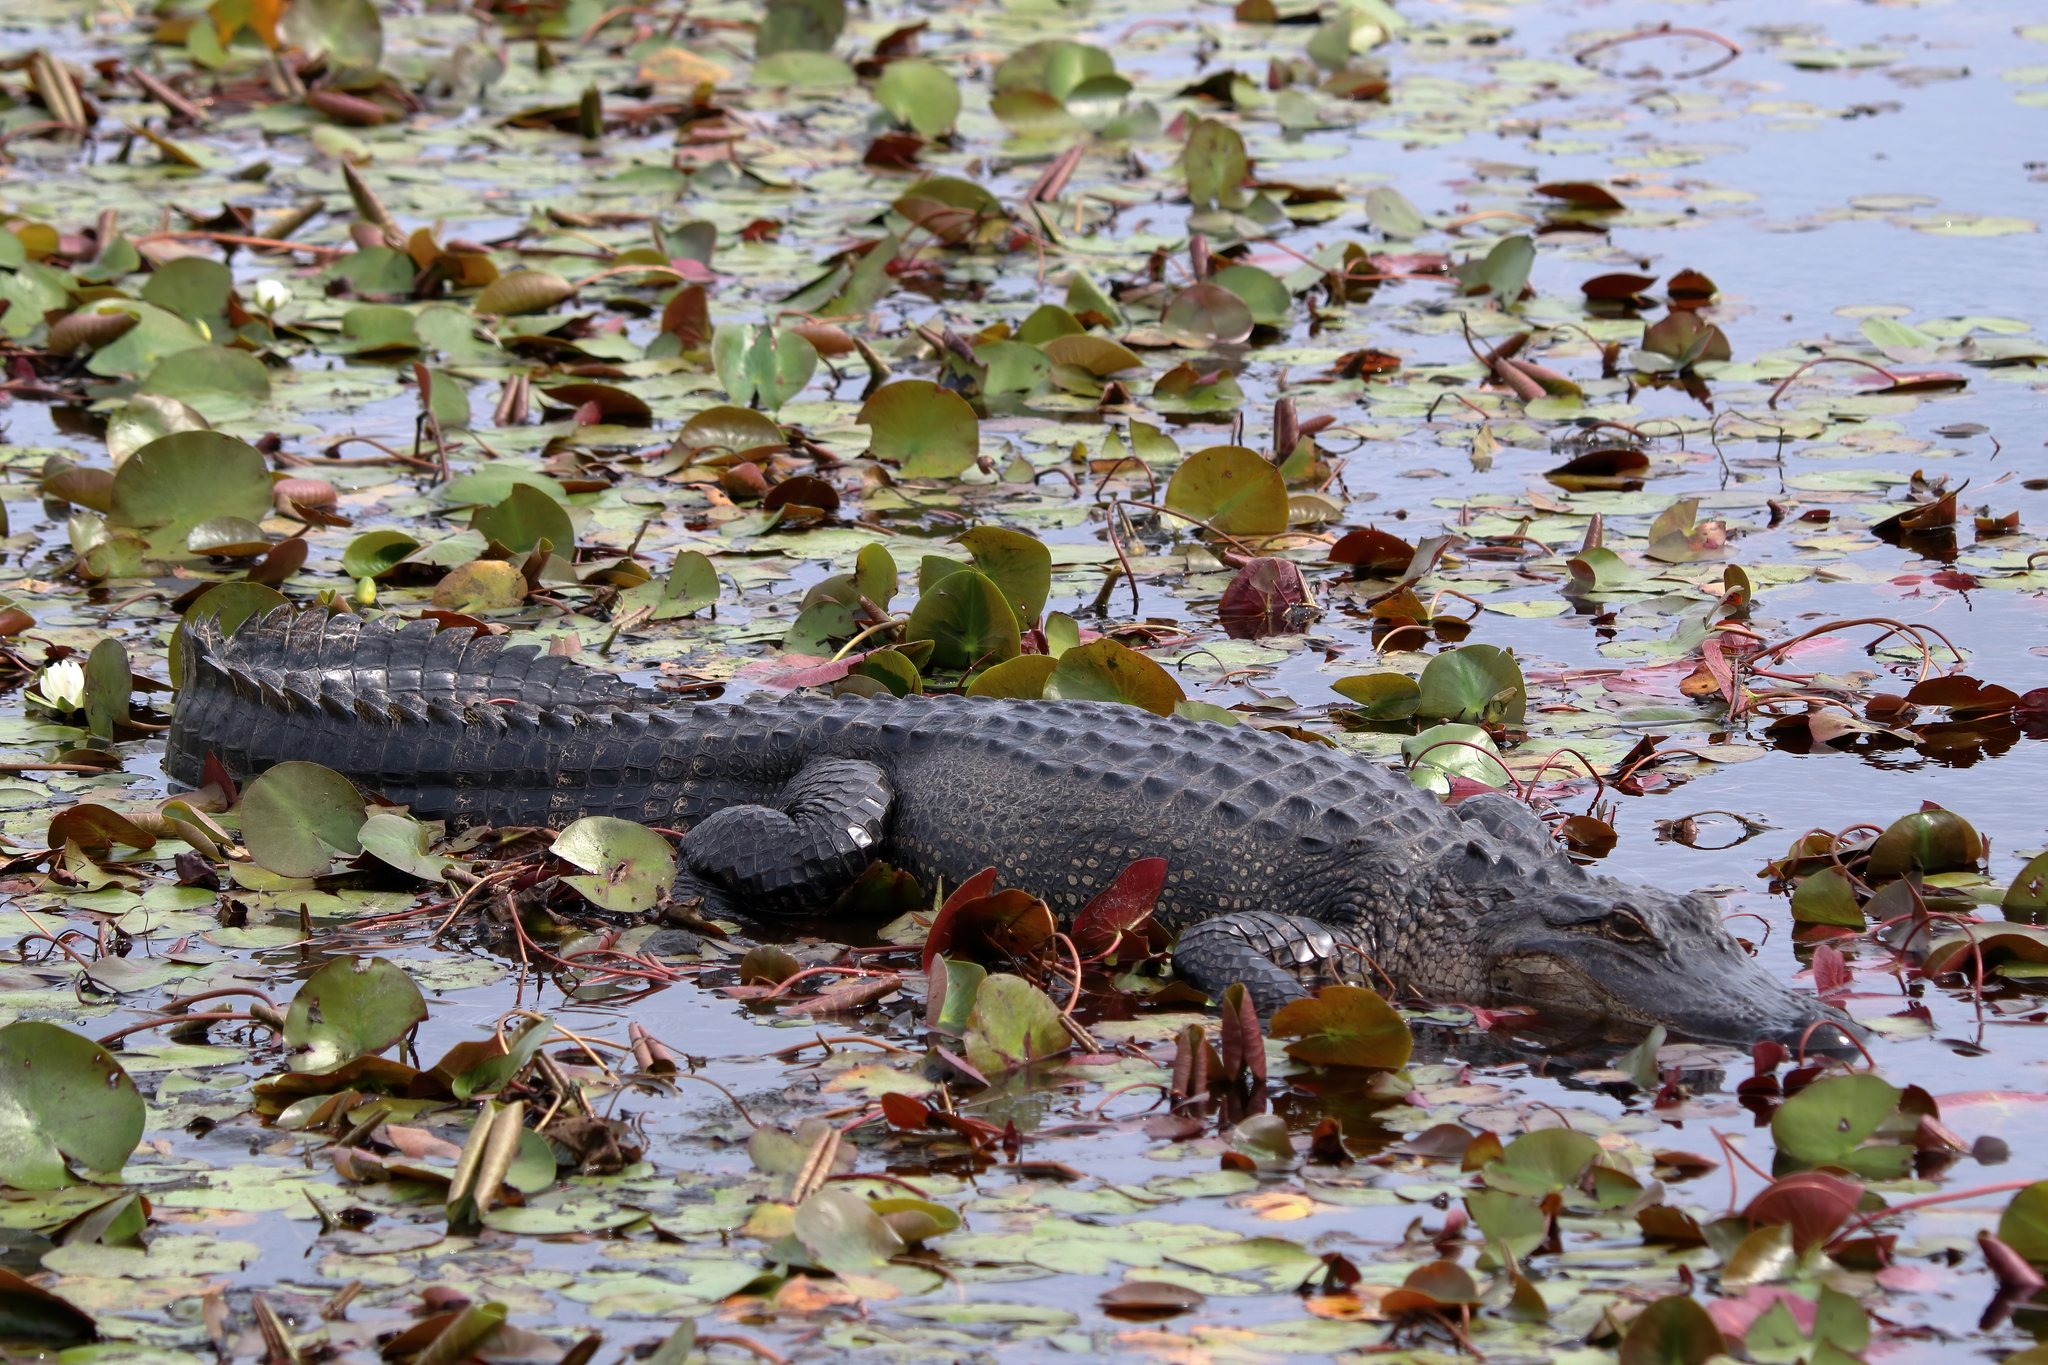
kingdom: Animalia
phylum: Chordata
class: Crocodylia
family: Alligatoridae
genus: Alligator
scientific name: Alligator mississippiensis
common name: American alligator
